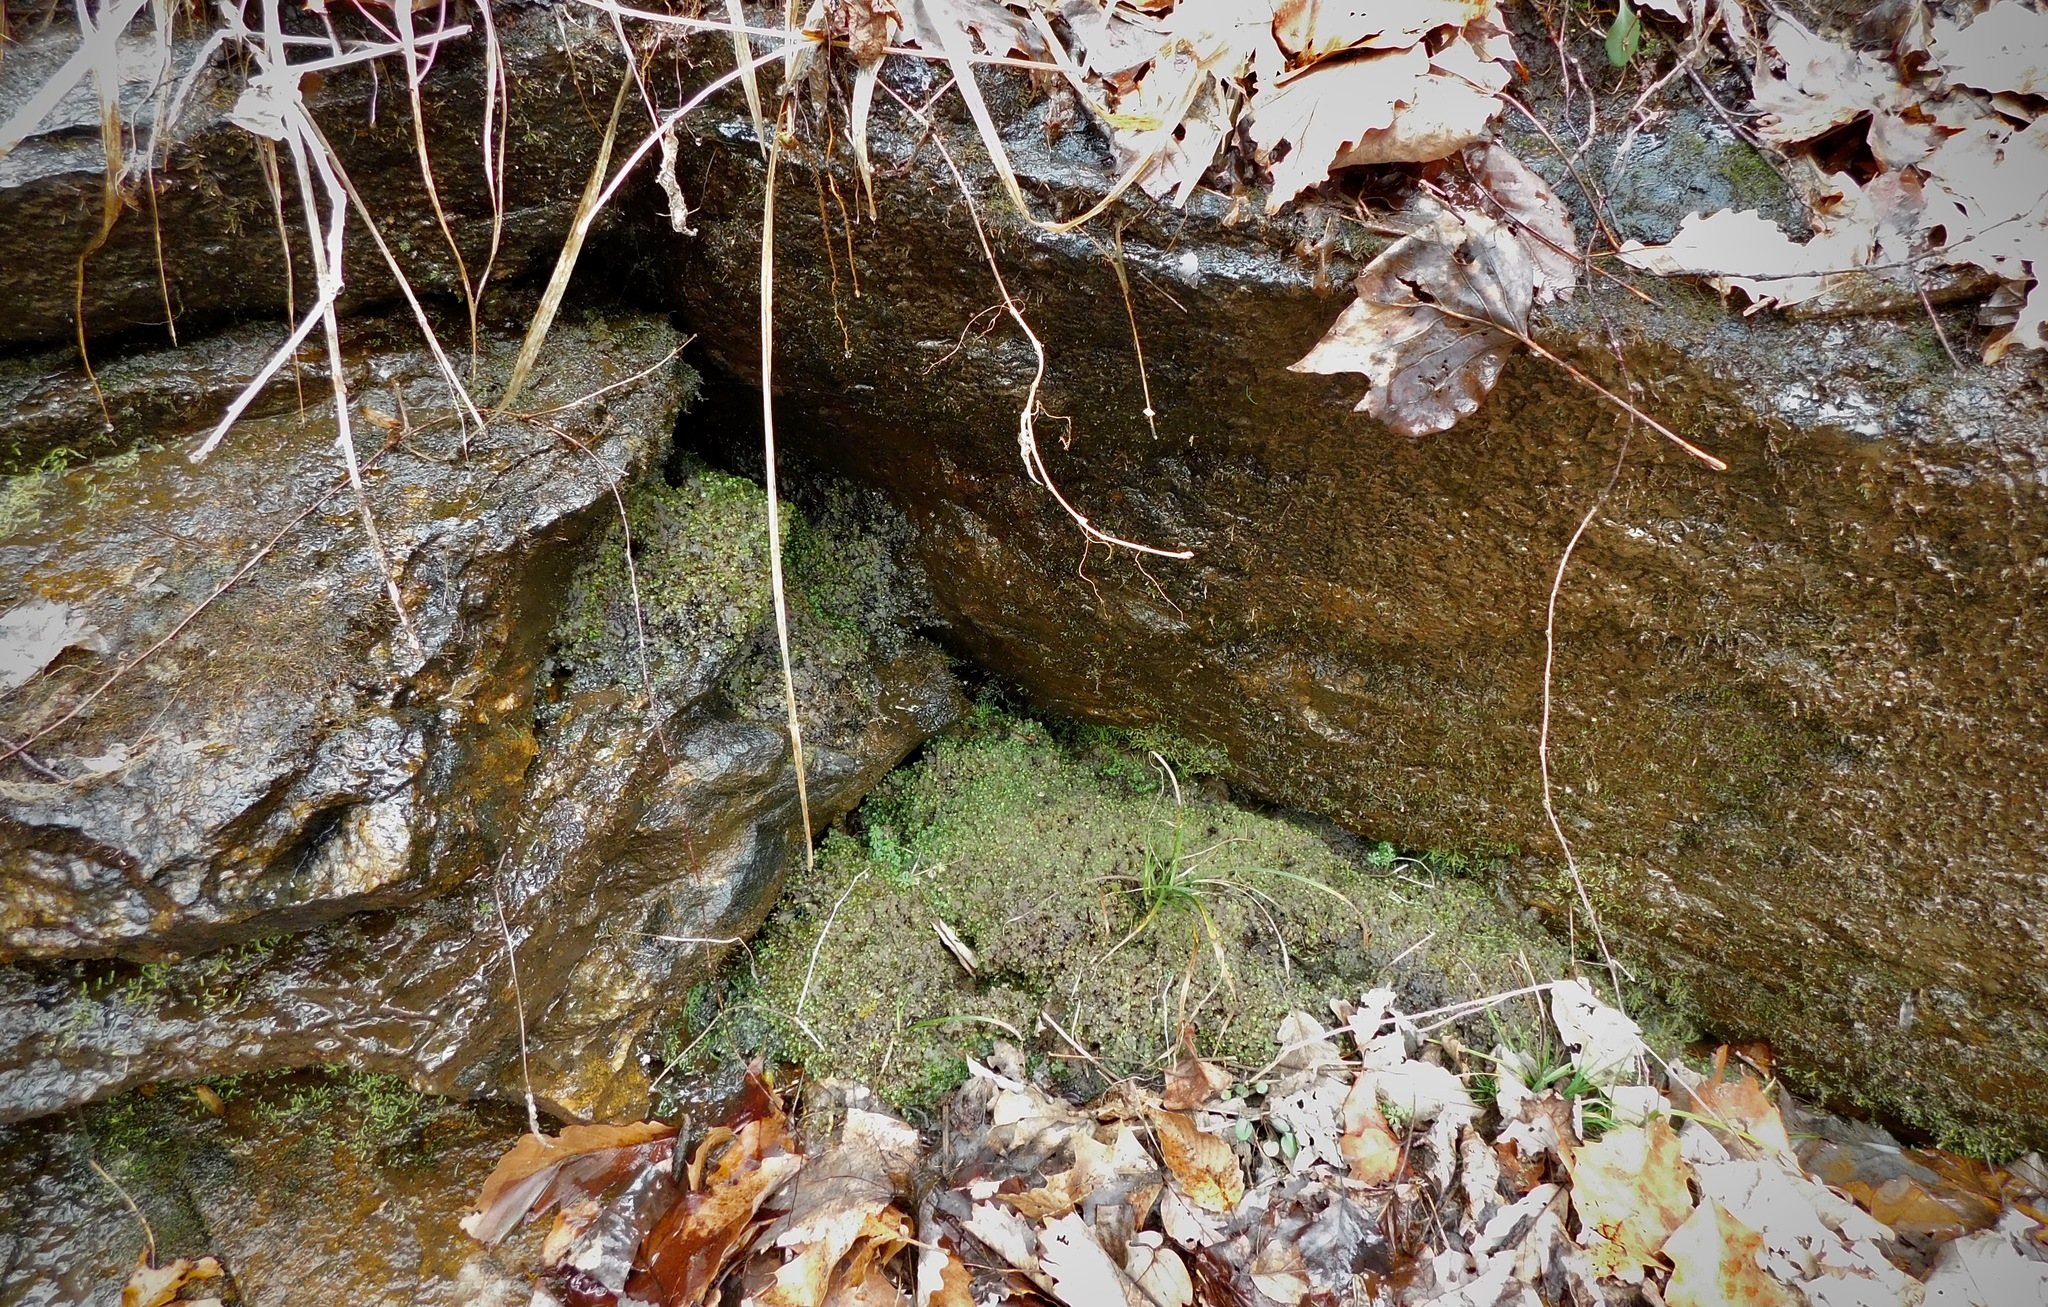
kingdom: Plantae
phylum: Marchantiophyta
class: Jungermanniopsida
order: Pelliales
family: Pelliaceae
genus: Pellia
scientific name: Pellia neesiana
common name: Nees  pellia
